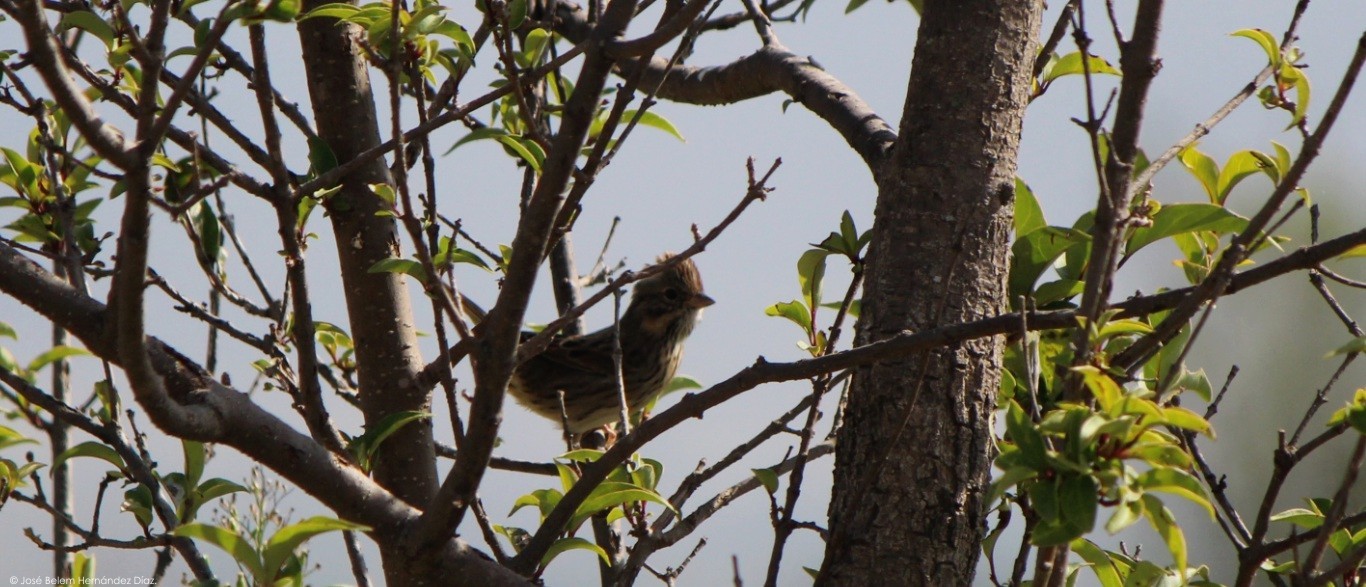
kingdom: Animalia
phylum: Chordata
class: Aves
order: Passeriformes
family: Passerellidae
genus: Melospiza
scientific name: Melospiza lincolnii
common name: Lincoln's sparrow
